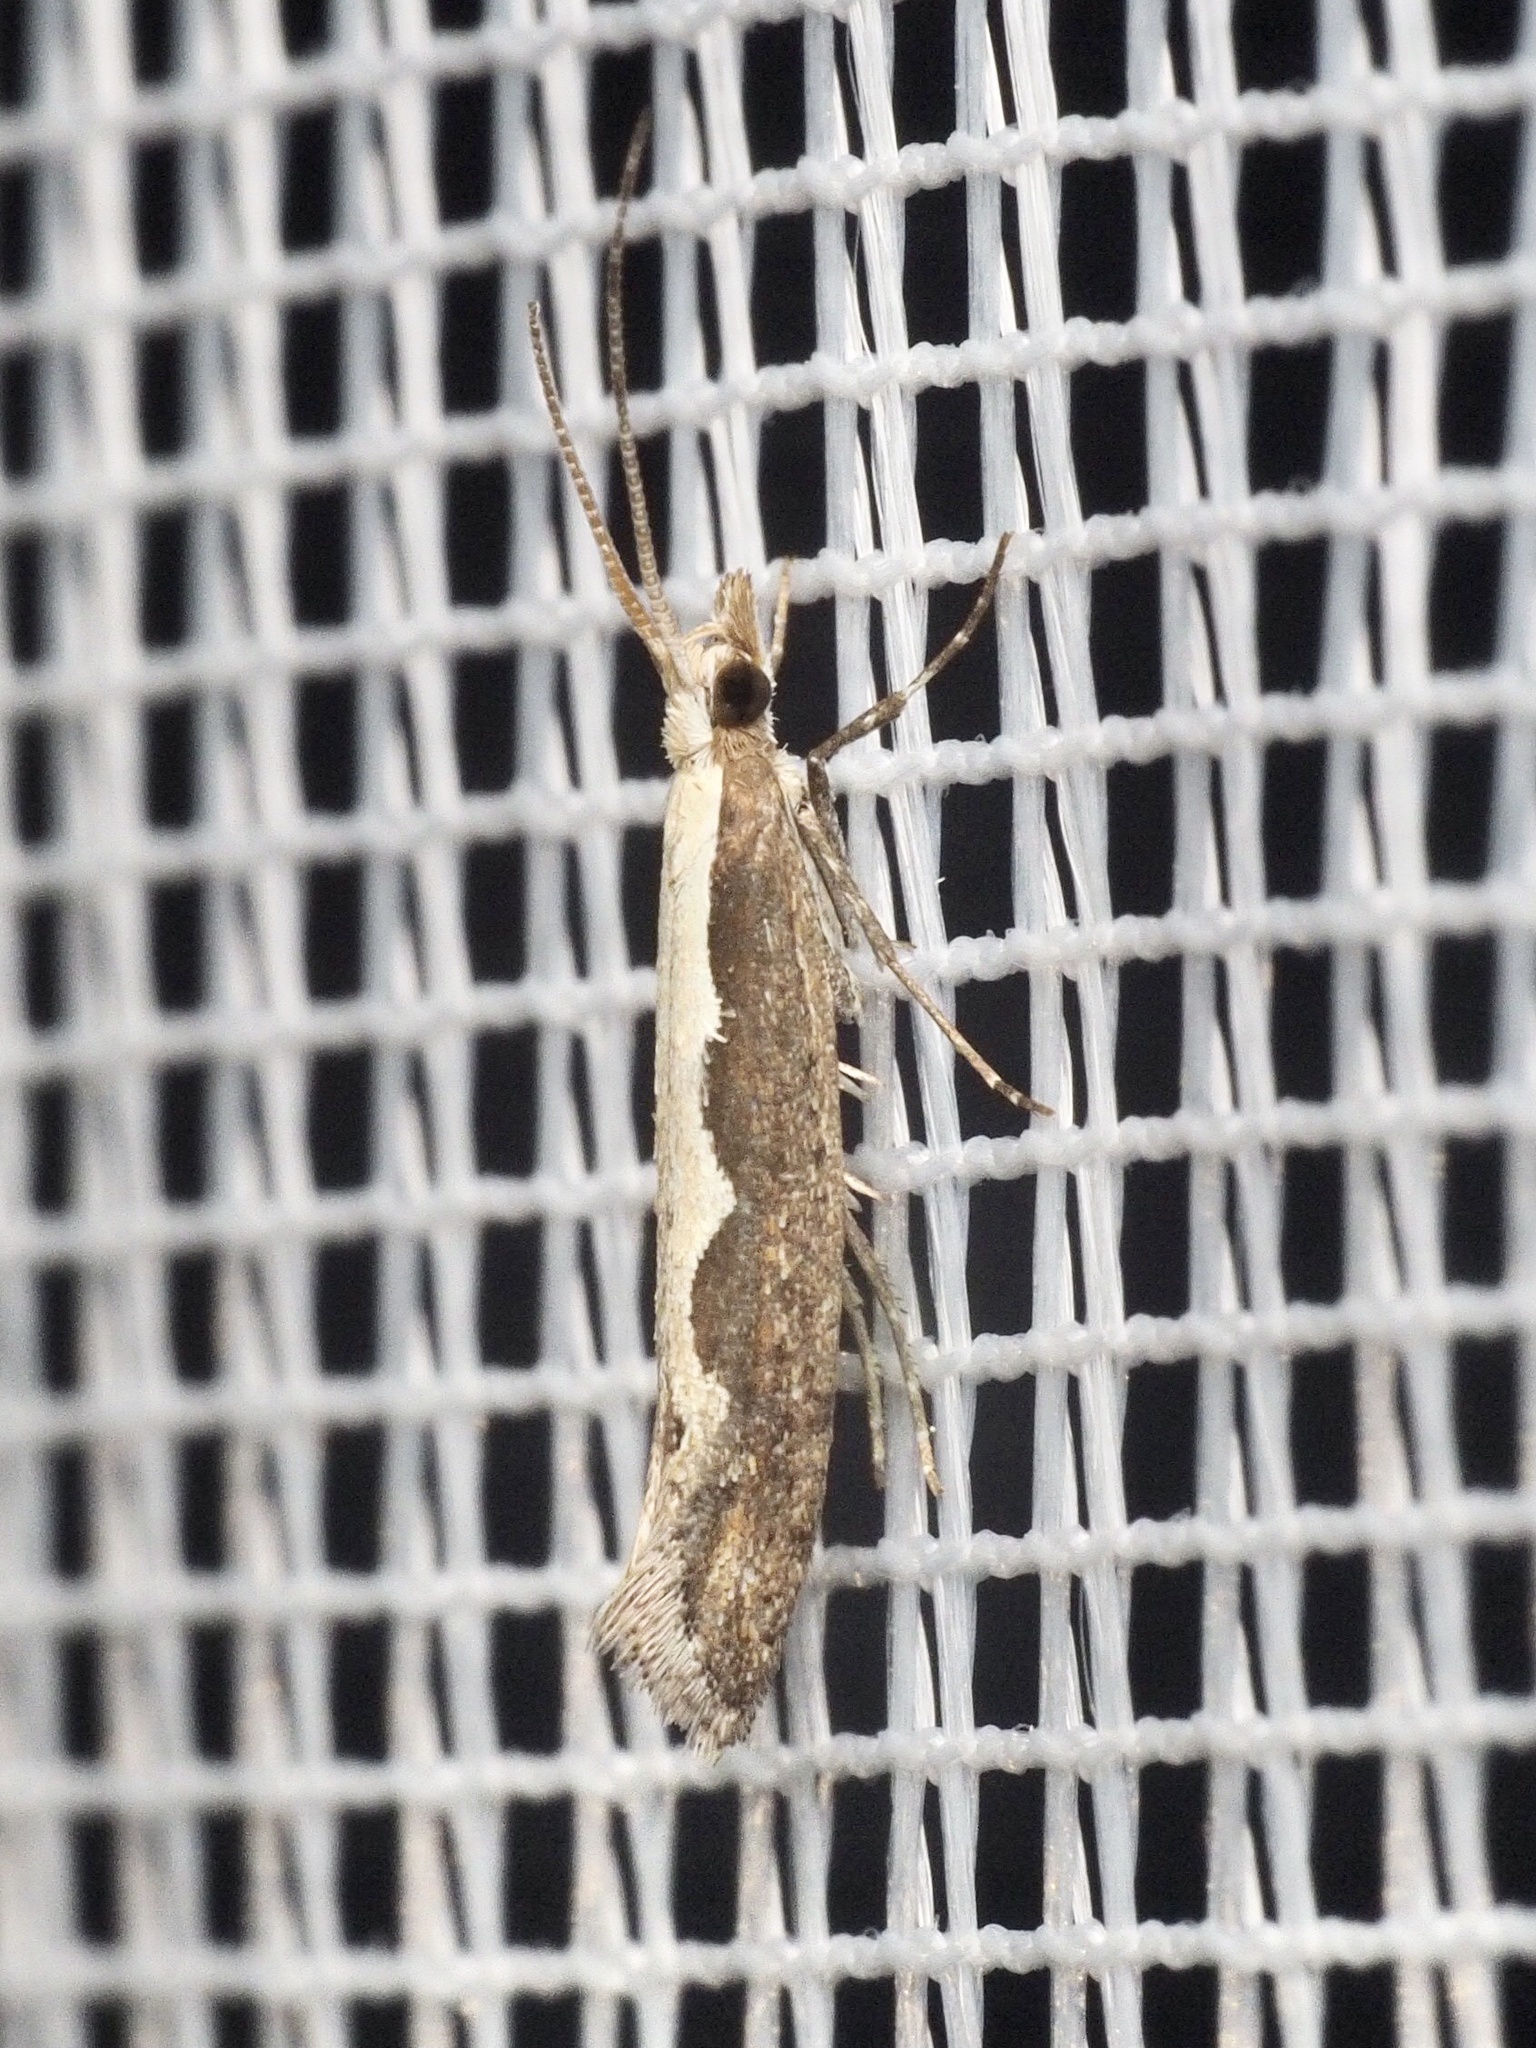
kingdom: Animalia
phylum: Arthropoda
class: Insecta
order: Lepidoptera
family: Plutellidae
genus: Plutella
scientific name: Plutella xylostella
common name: Diamond-back moth
